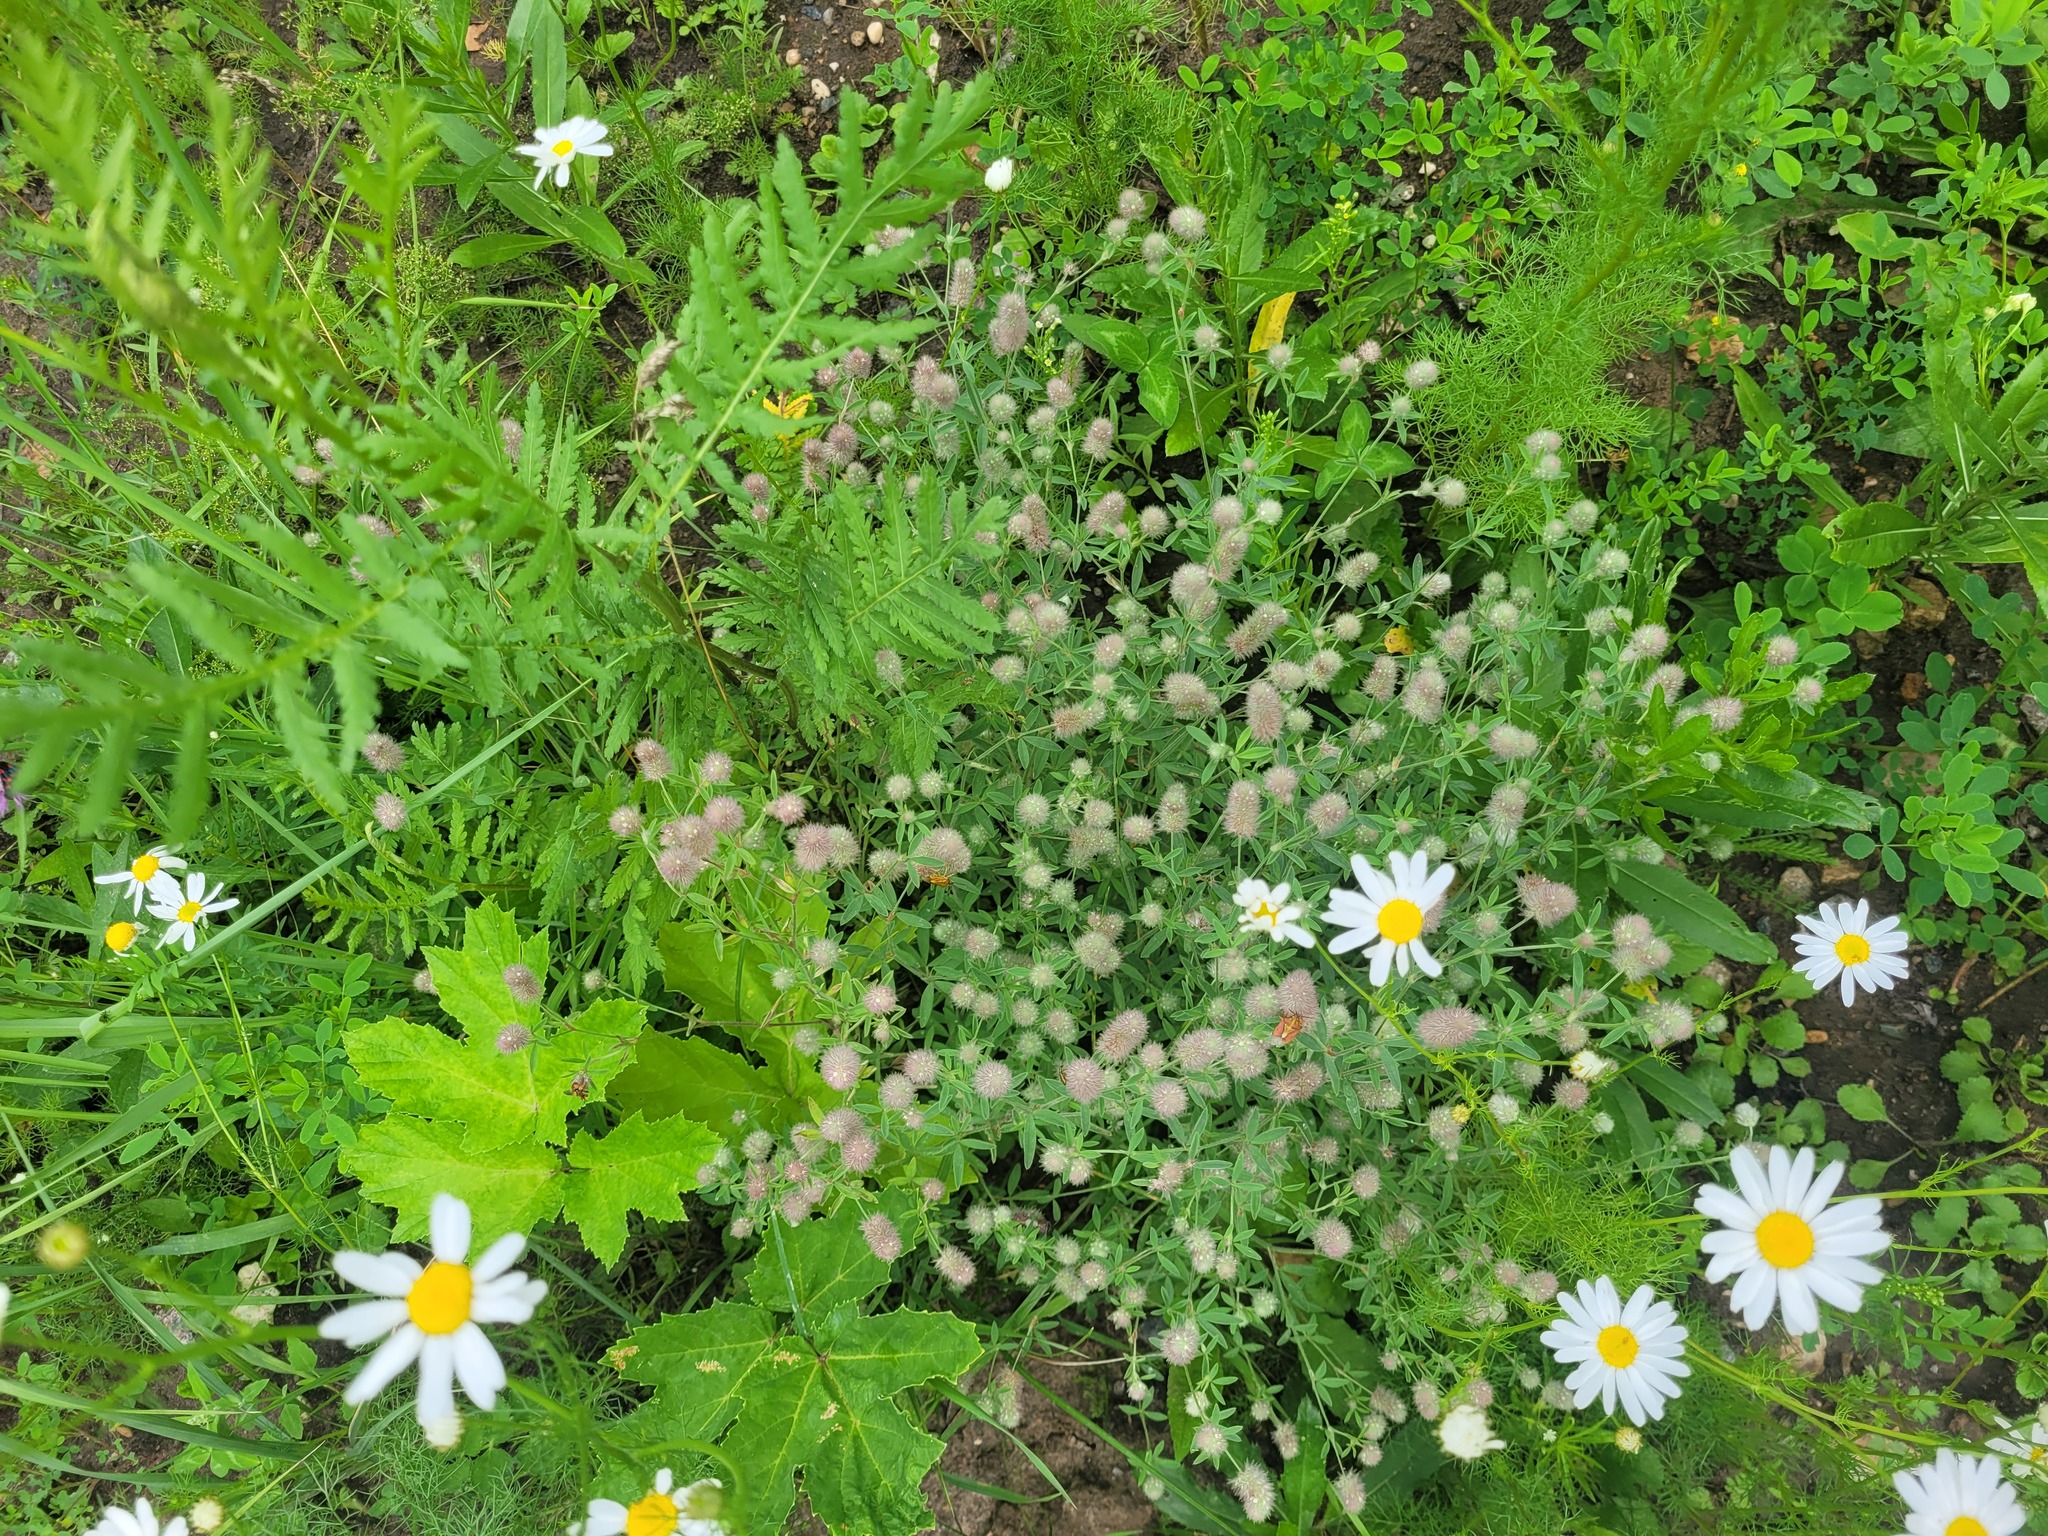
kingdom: Plantae
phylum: Tracheophyta
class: Magnoliopsida
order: Fabales
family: Fabaceae
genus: Trifolium
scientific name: Trifolium arvense
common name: Hare's-foot clover
